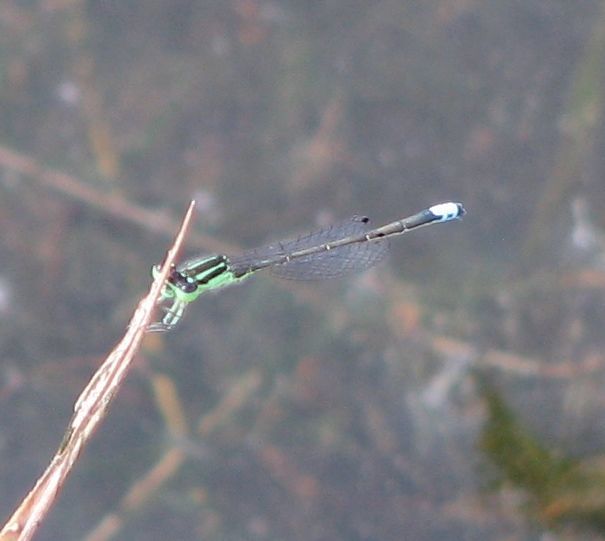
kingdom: Animalia
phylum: Arthropoda
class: Insecta
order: Odonata
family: Coenagrionidae
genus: Ischnura
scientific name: Ischnura verticalis
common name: Eastern forktail
